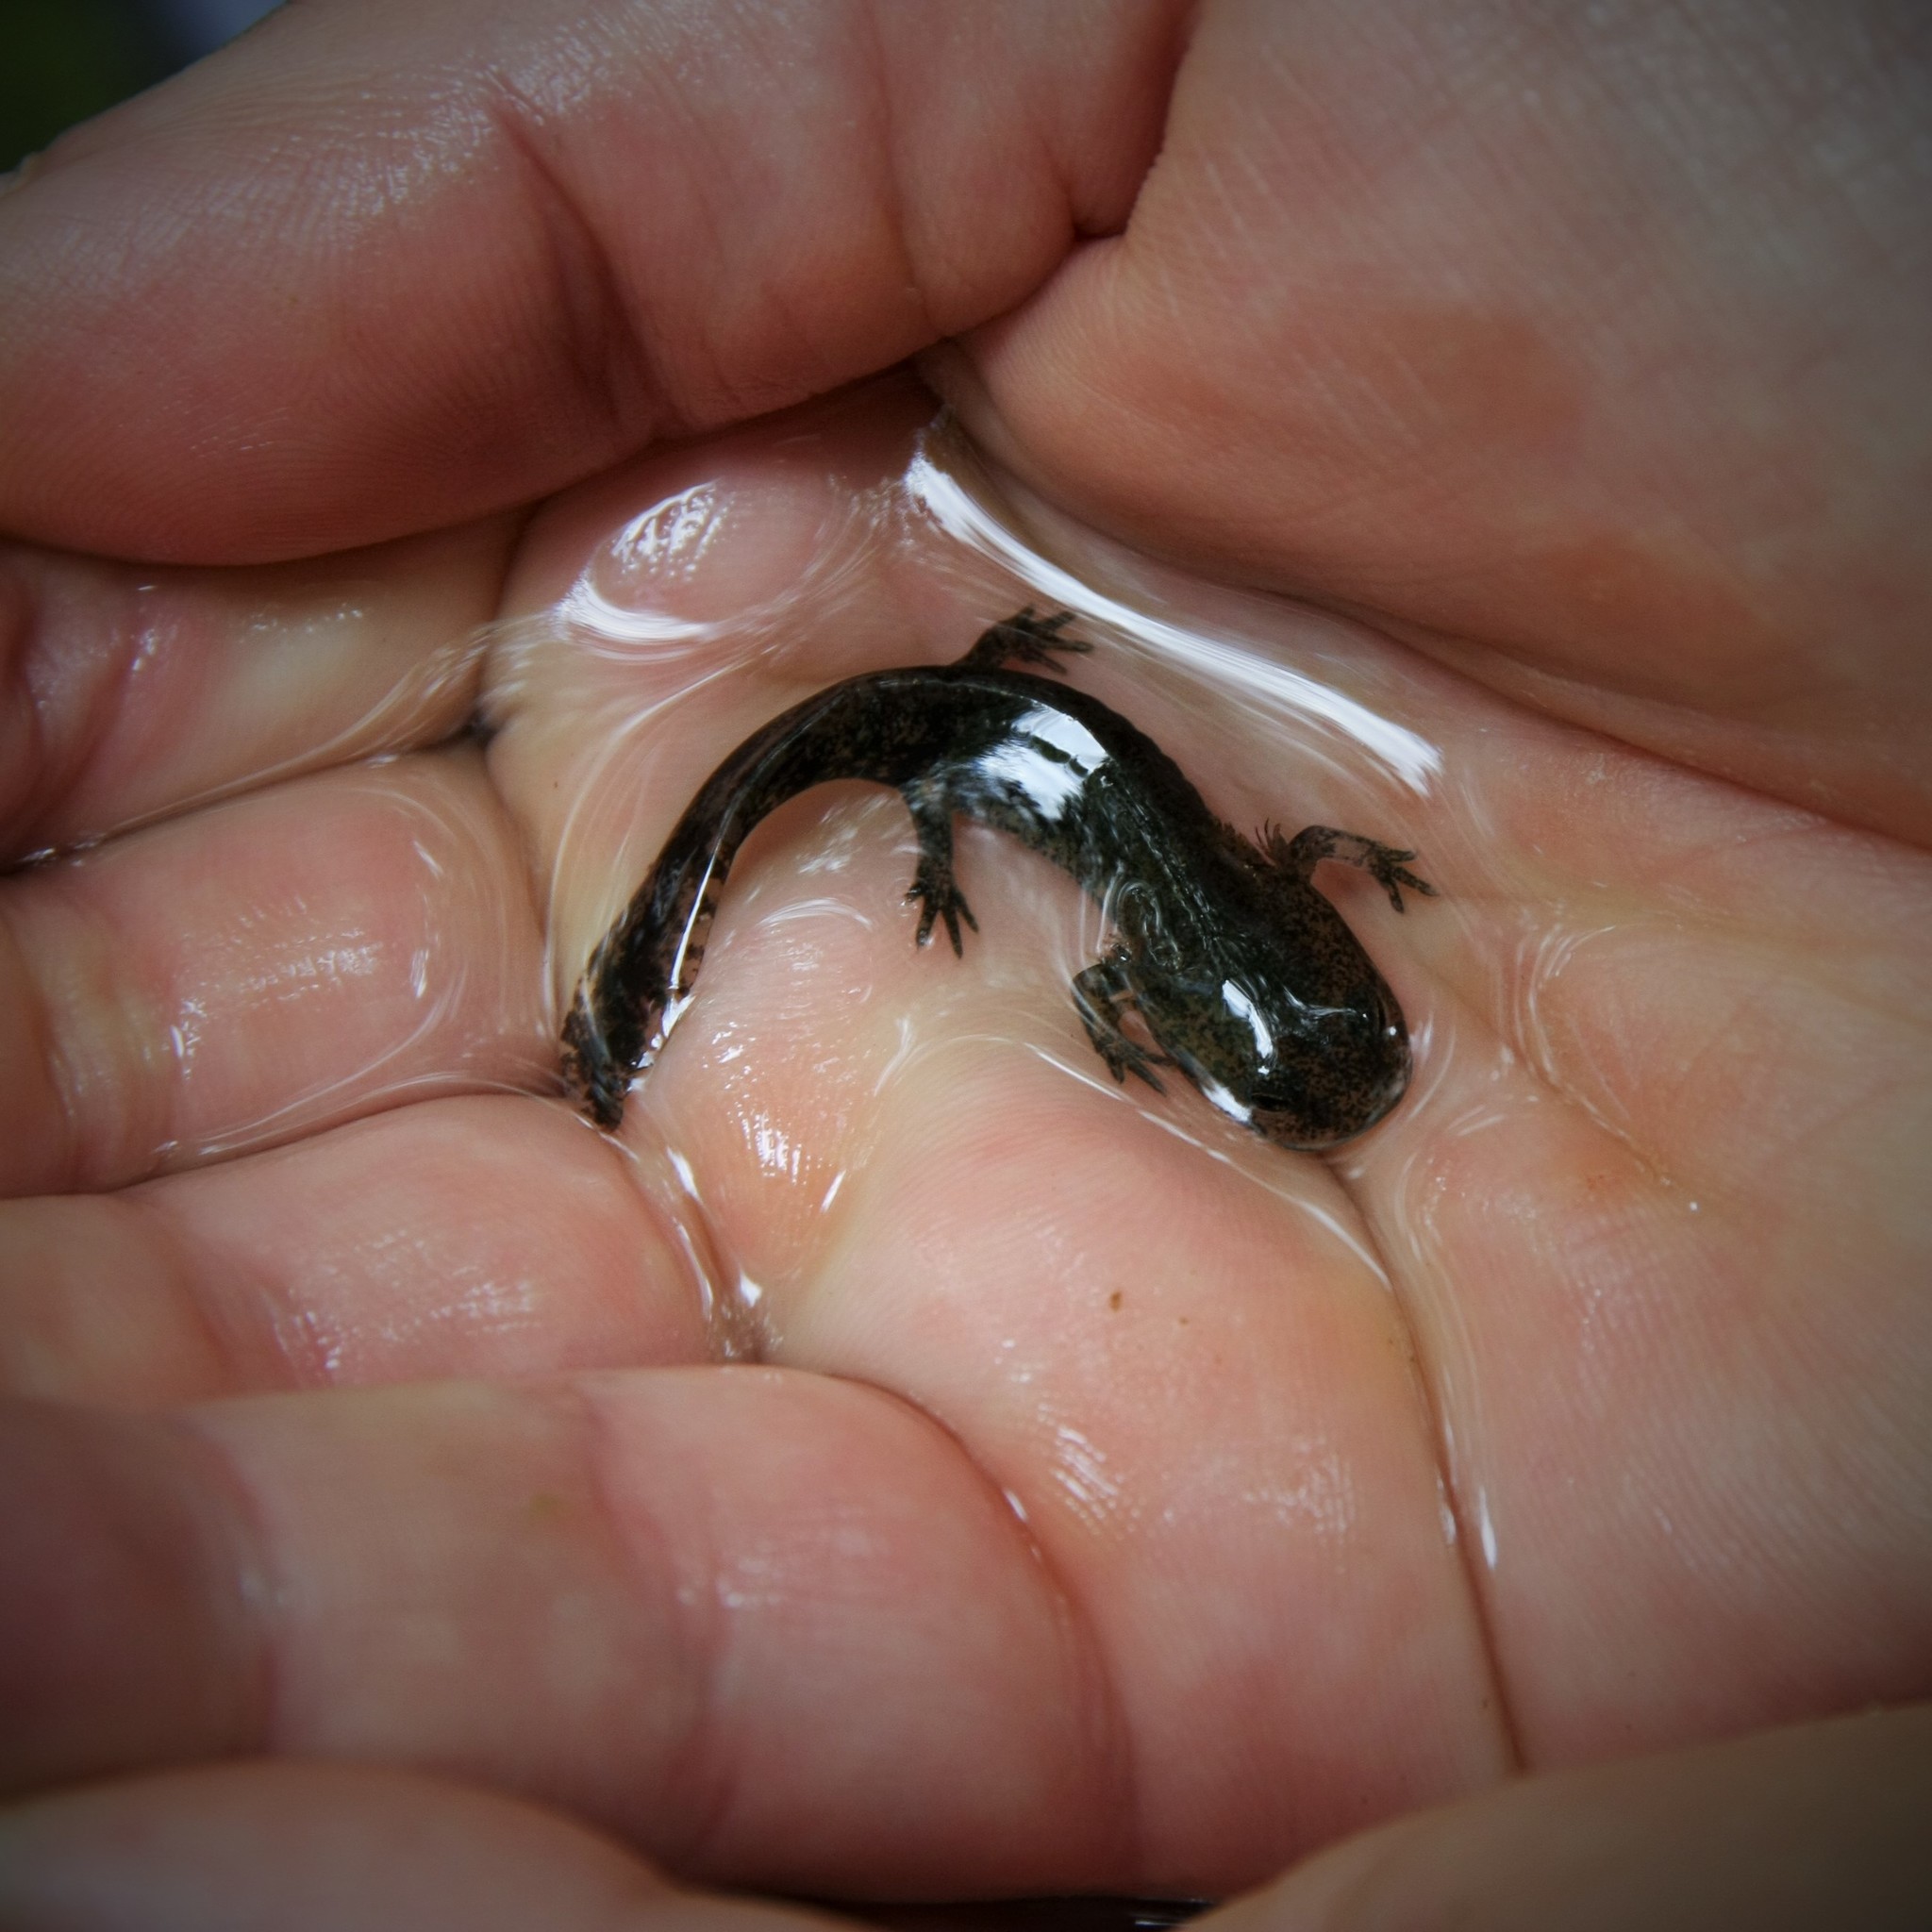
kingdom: Animalia
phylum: Chordata
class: Amphibia
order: Caudata
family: Salamandridae
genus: Salamandra
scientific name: Salamandra salamandra
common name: Fire salamander
